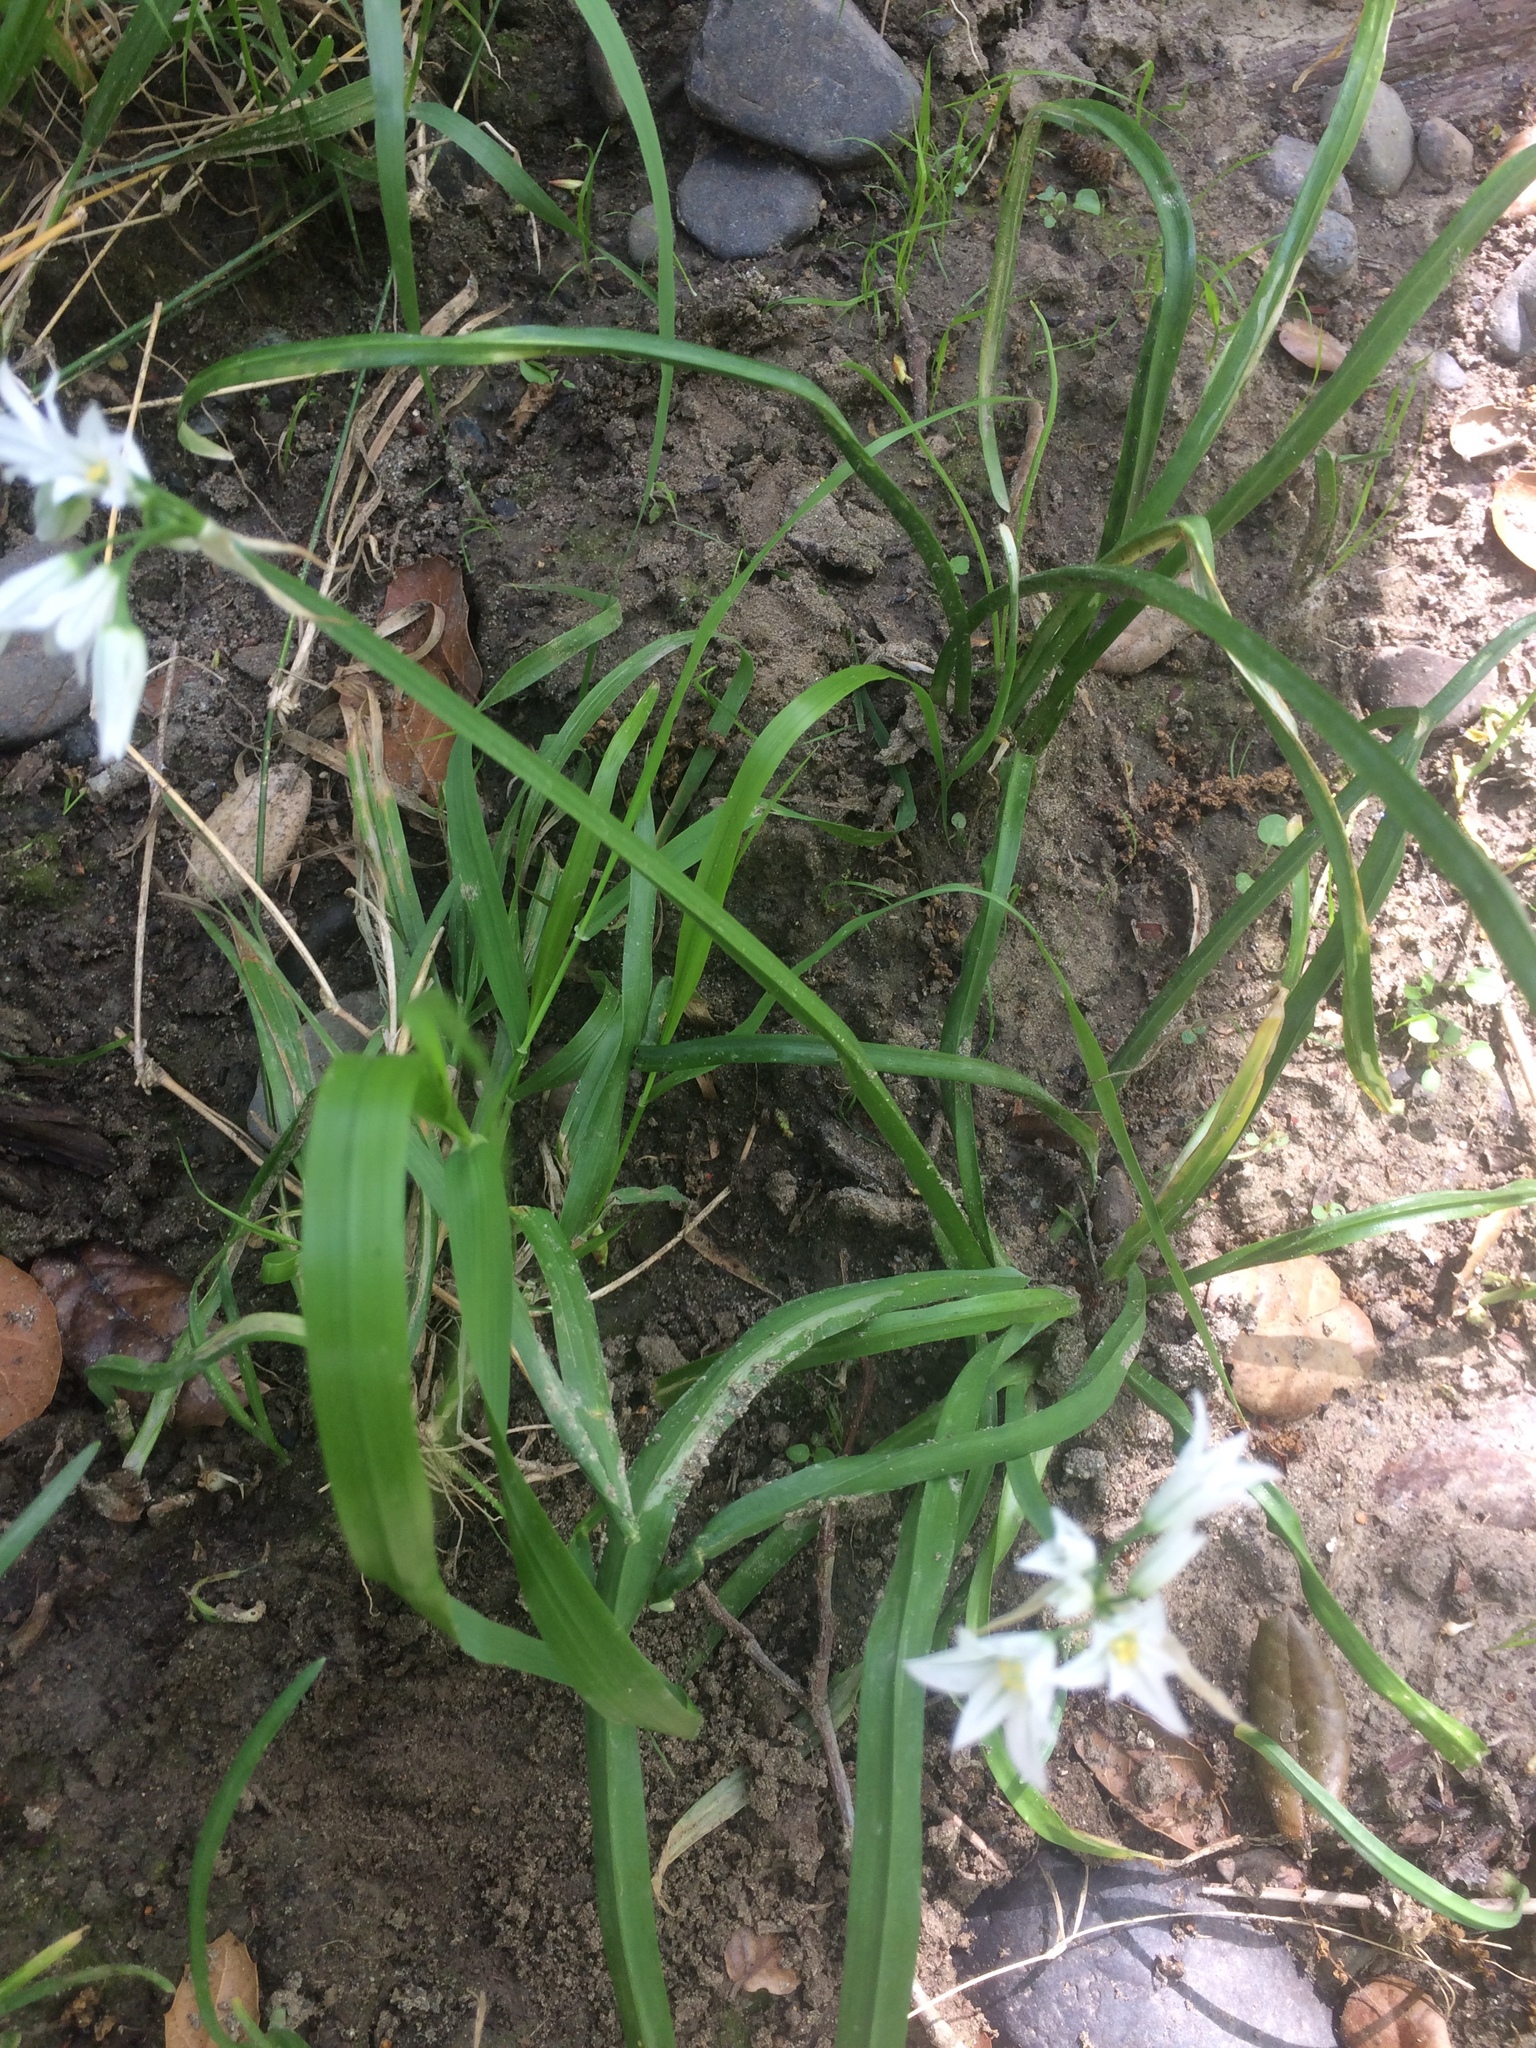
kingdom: Plantae
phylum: Tracheophyta
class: Liliopsida
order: Asparagales
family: Amaryllidaceae
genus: Allium
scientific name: Allium triquetrum
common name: Three-cornered garlic
